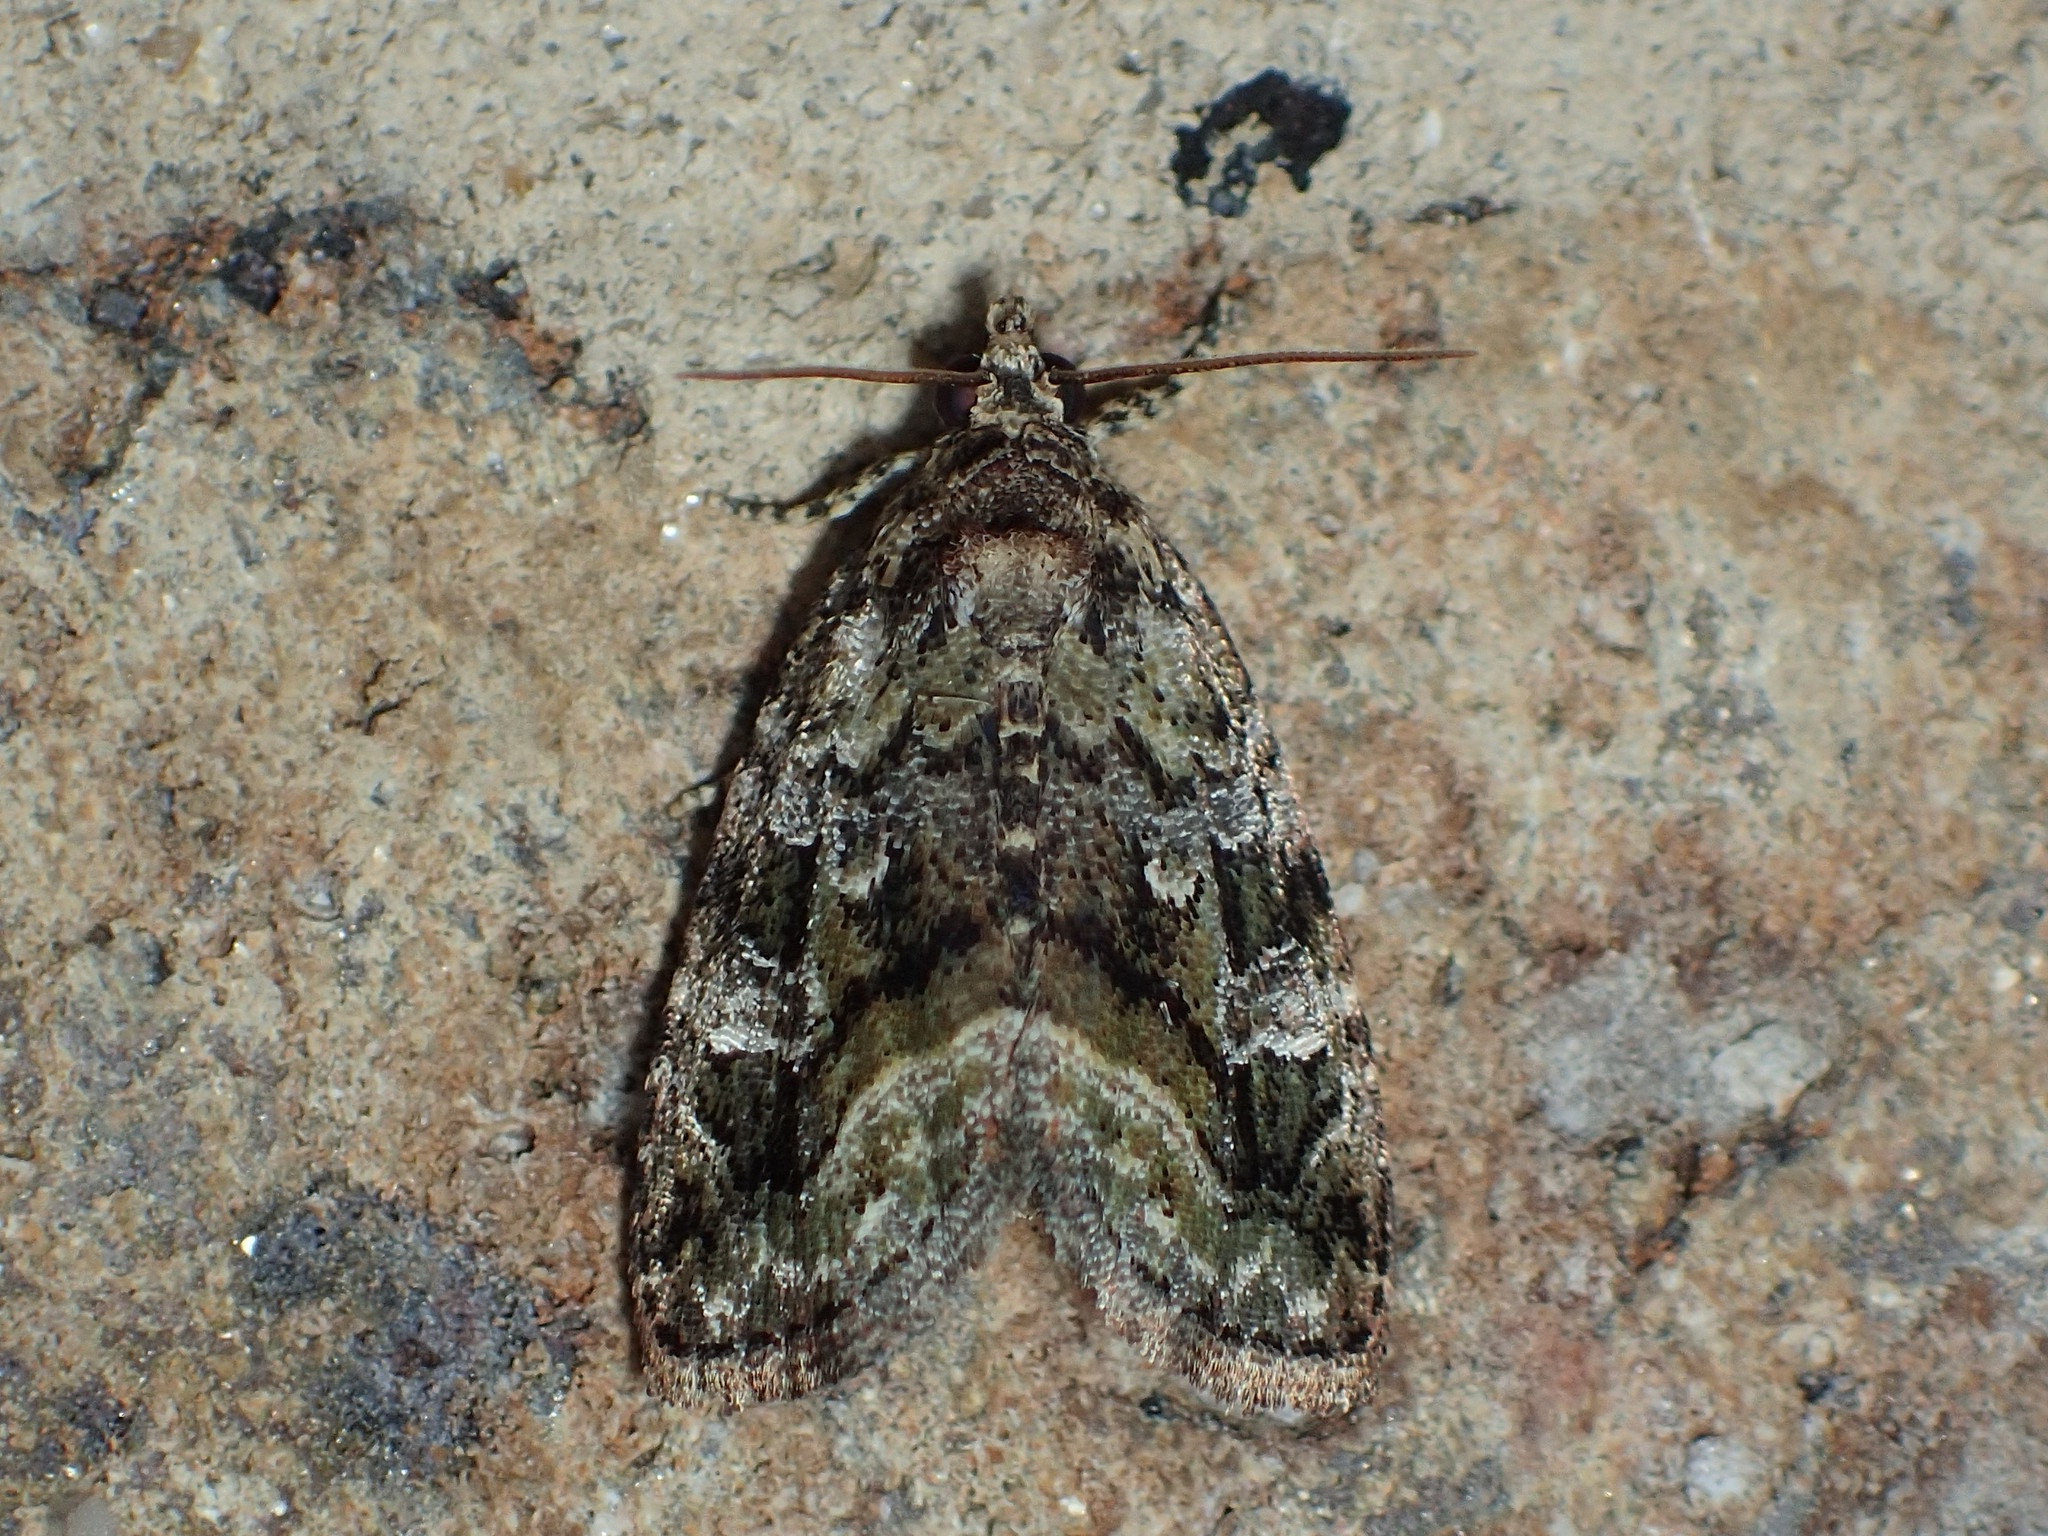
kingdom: Animalia
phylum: Arthropoda
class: Insecta
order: Lepidoptera
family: Noctuidae
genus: Protodeltote
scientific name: Protodeltote muscosula
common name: Large mossy glyph
